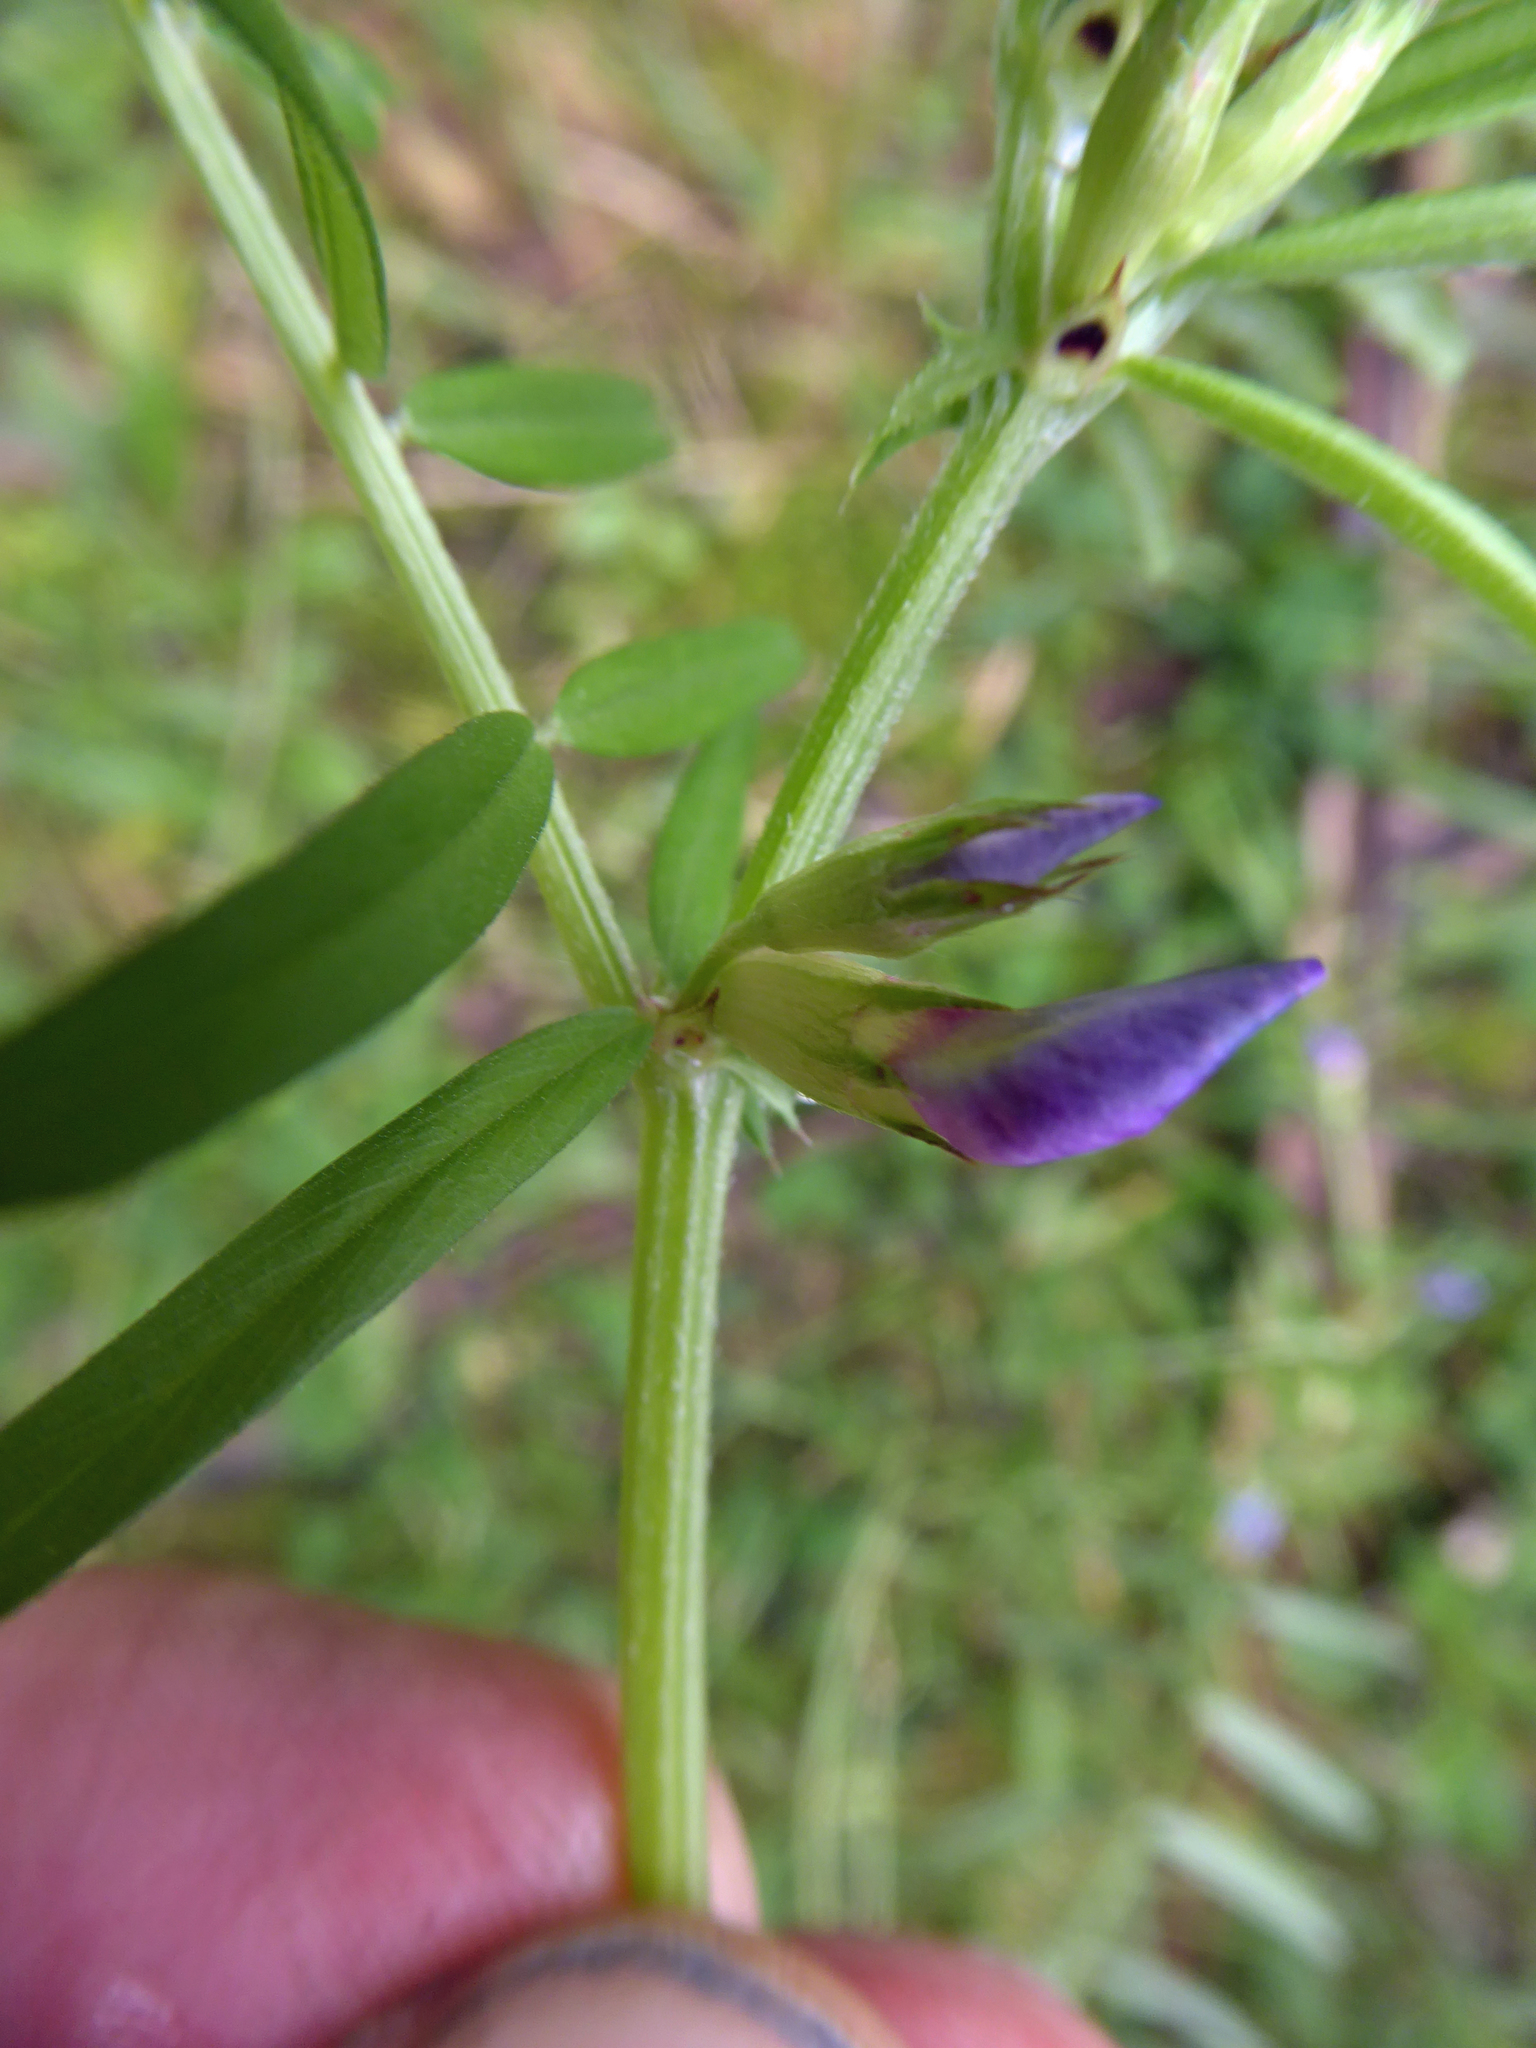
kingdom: Plantae
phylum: Tracheophyta
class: Magnoliopsida
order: Fabales
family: Fabaceae
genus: Vicia
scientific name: Vicia sativa
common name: Garden vetch
